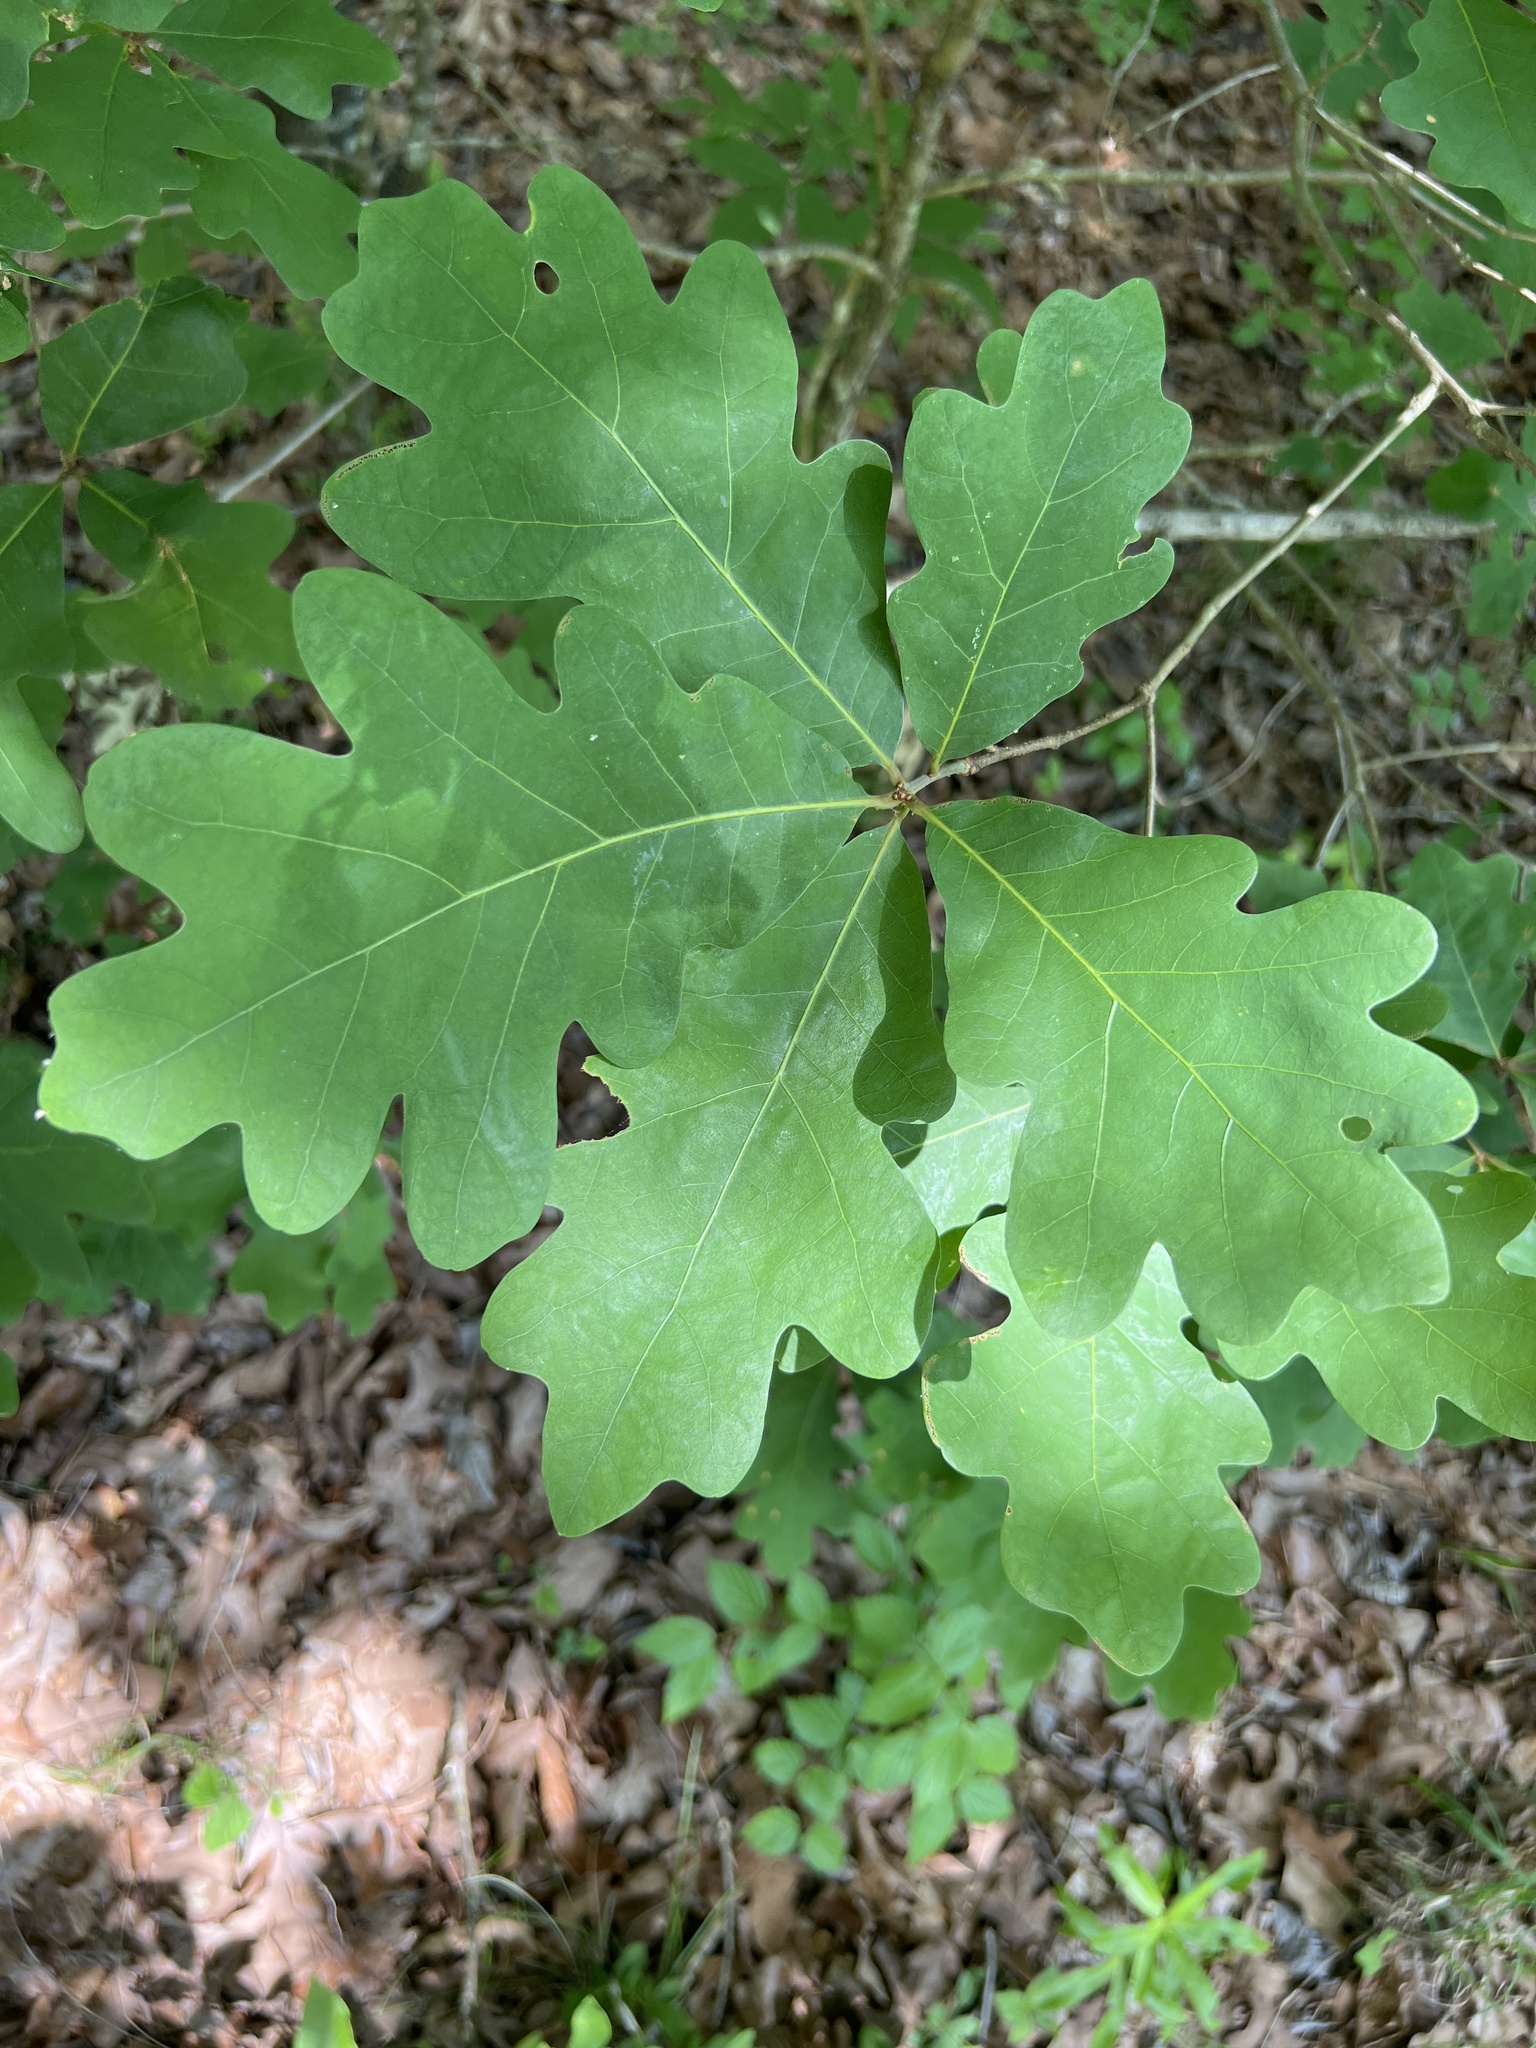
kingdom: Plantae
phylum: Tracheophyta
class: Magnoliopsida
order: Fagales
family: Fagaceae
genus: Quercus
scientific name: Quercus alba
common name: White oak
